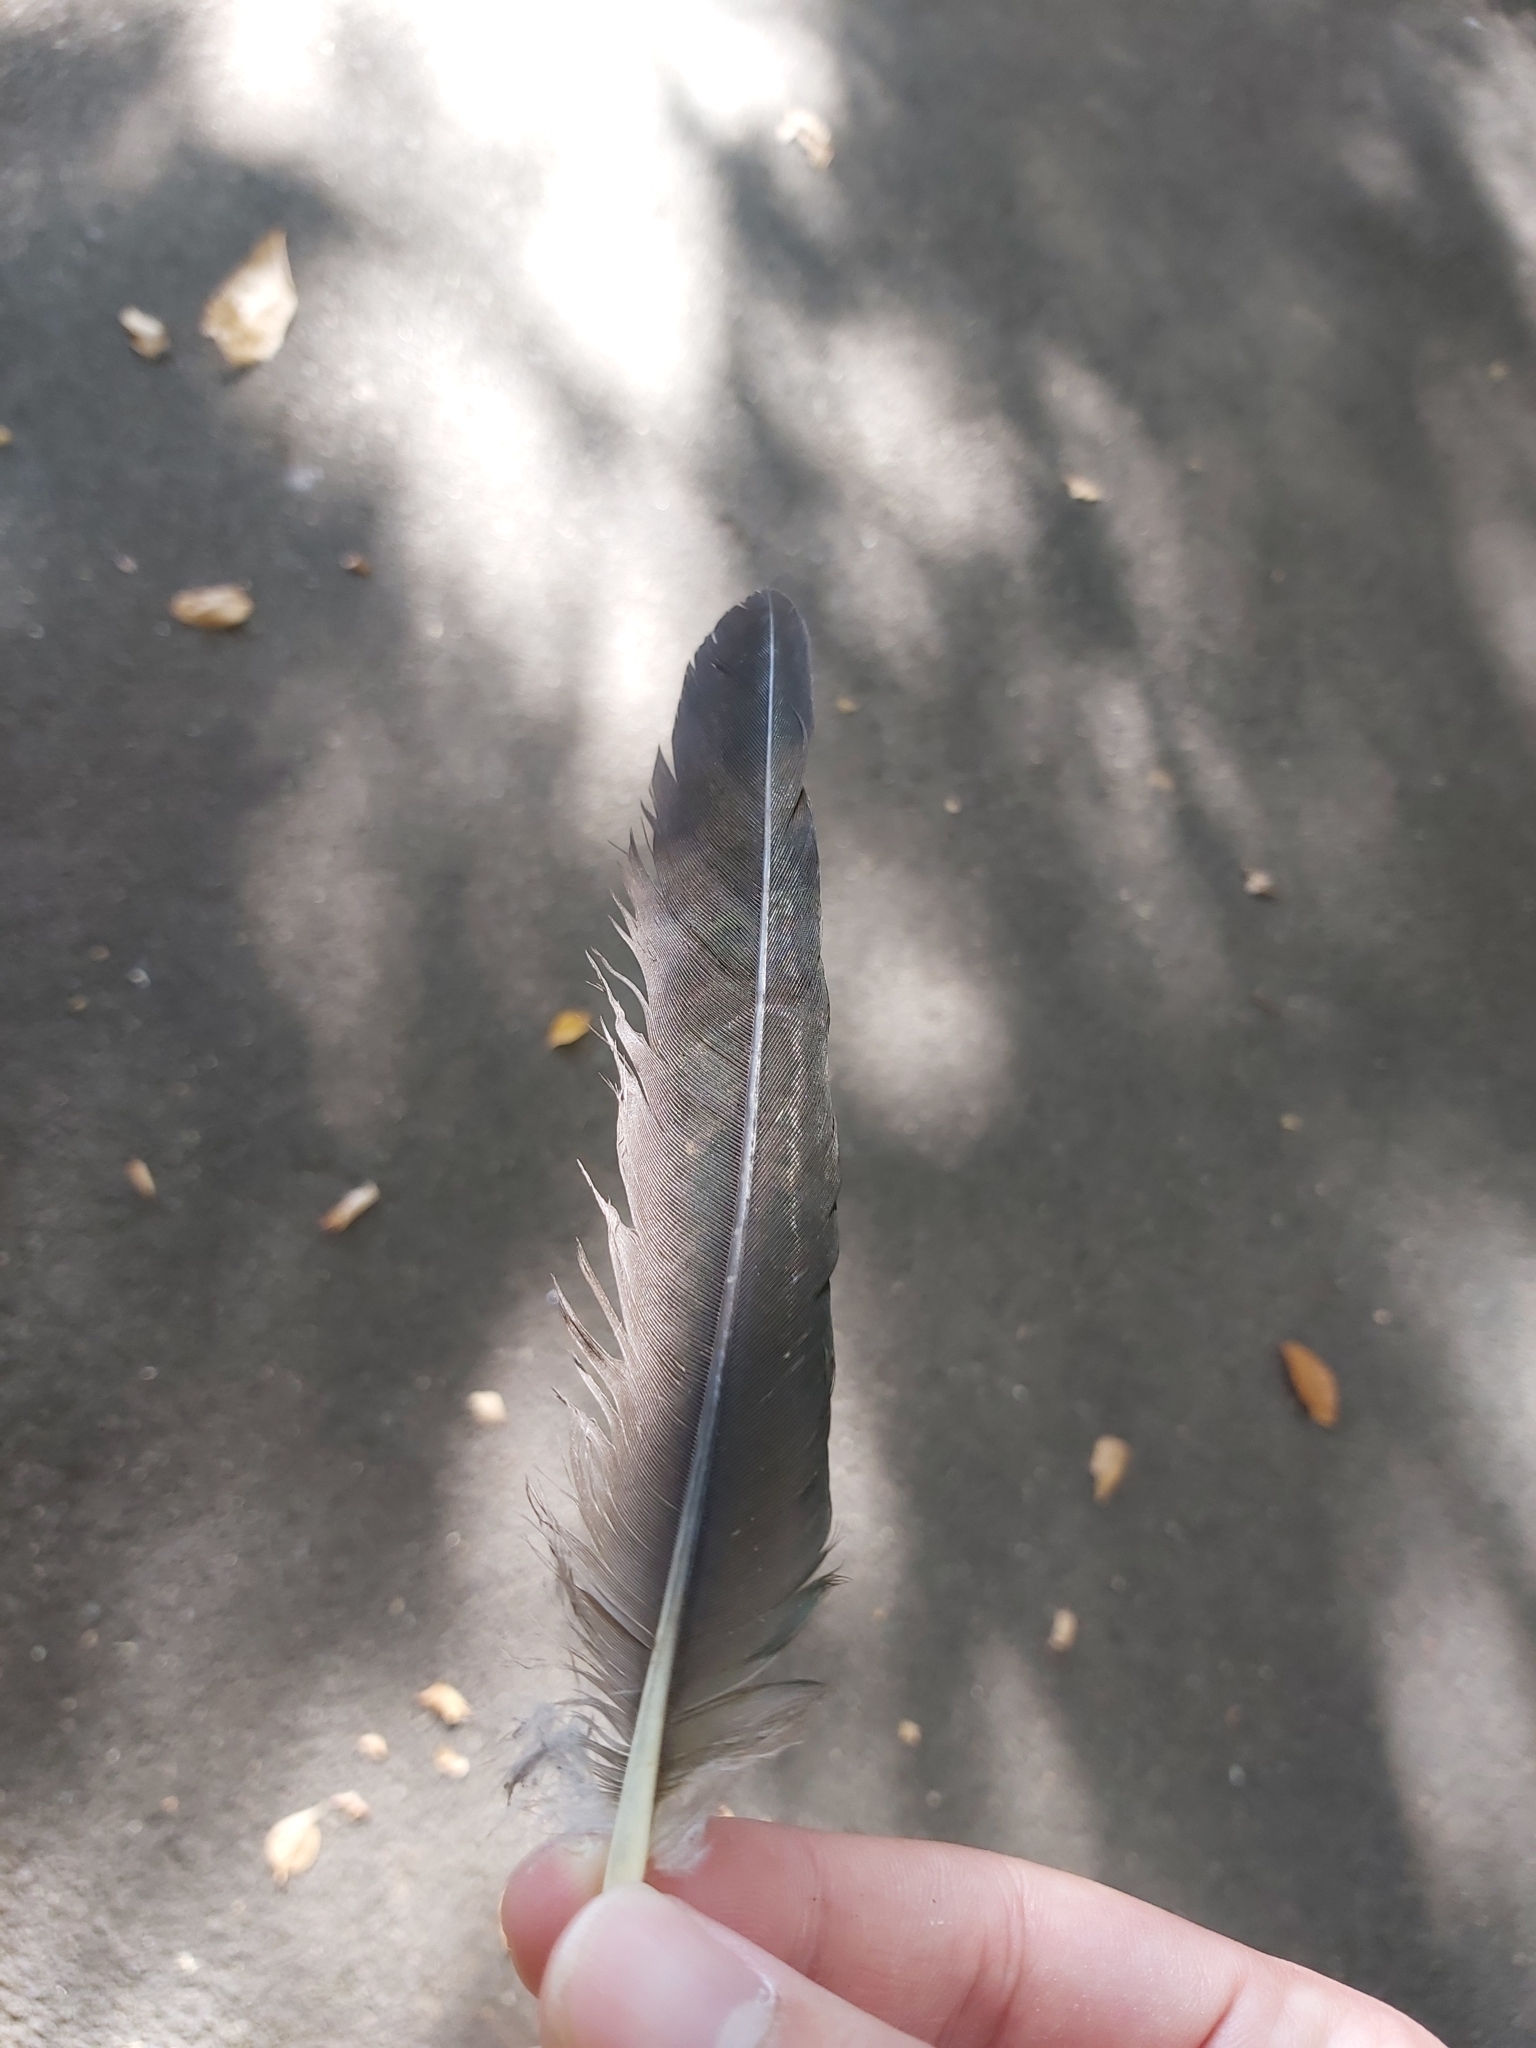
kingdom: Animalia
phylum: Chordata
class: Aves
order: Psittaciformes
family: Psittacidae
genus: Alisterus
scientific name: Alisterus scapularis
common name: Australian king parrot
